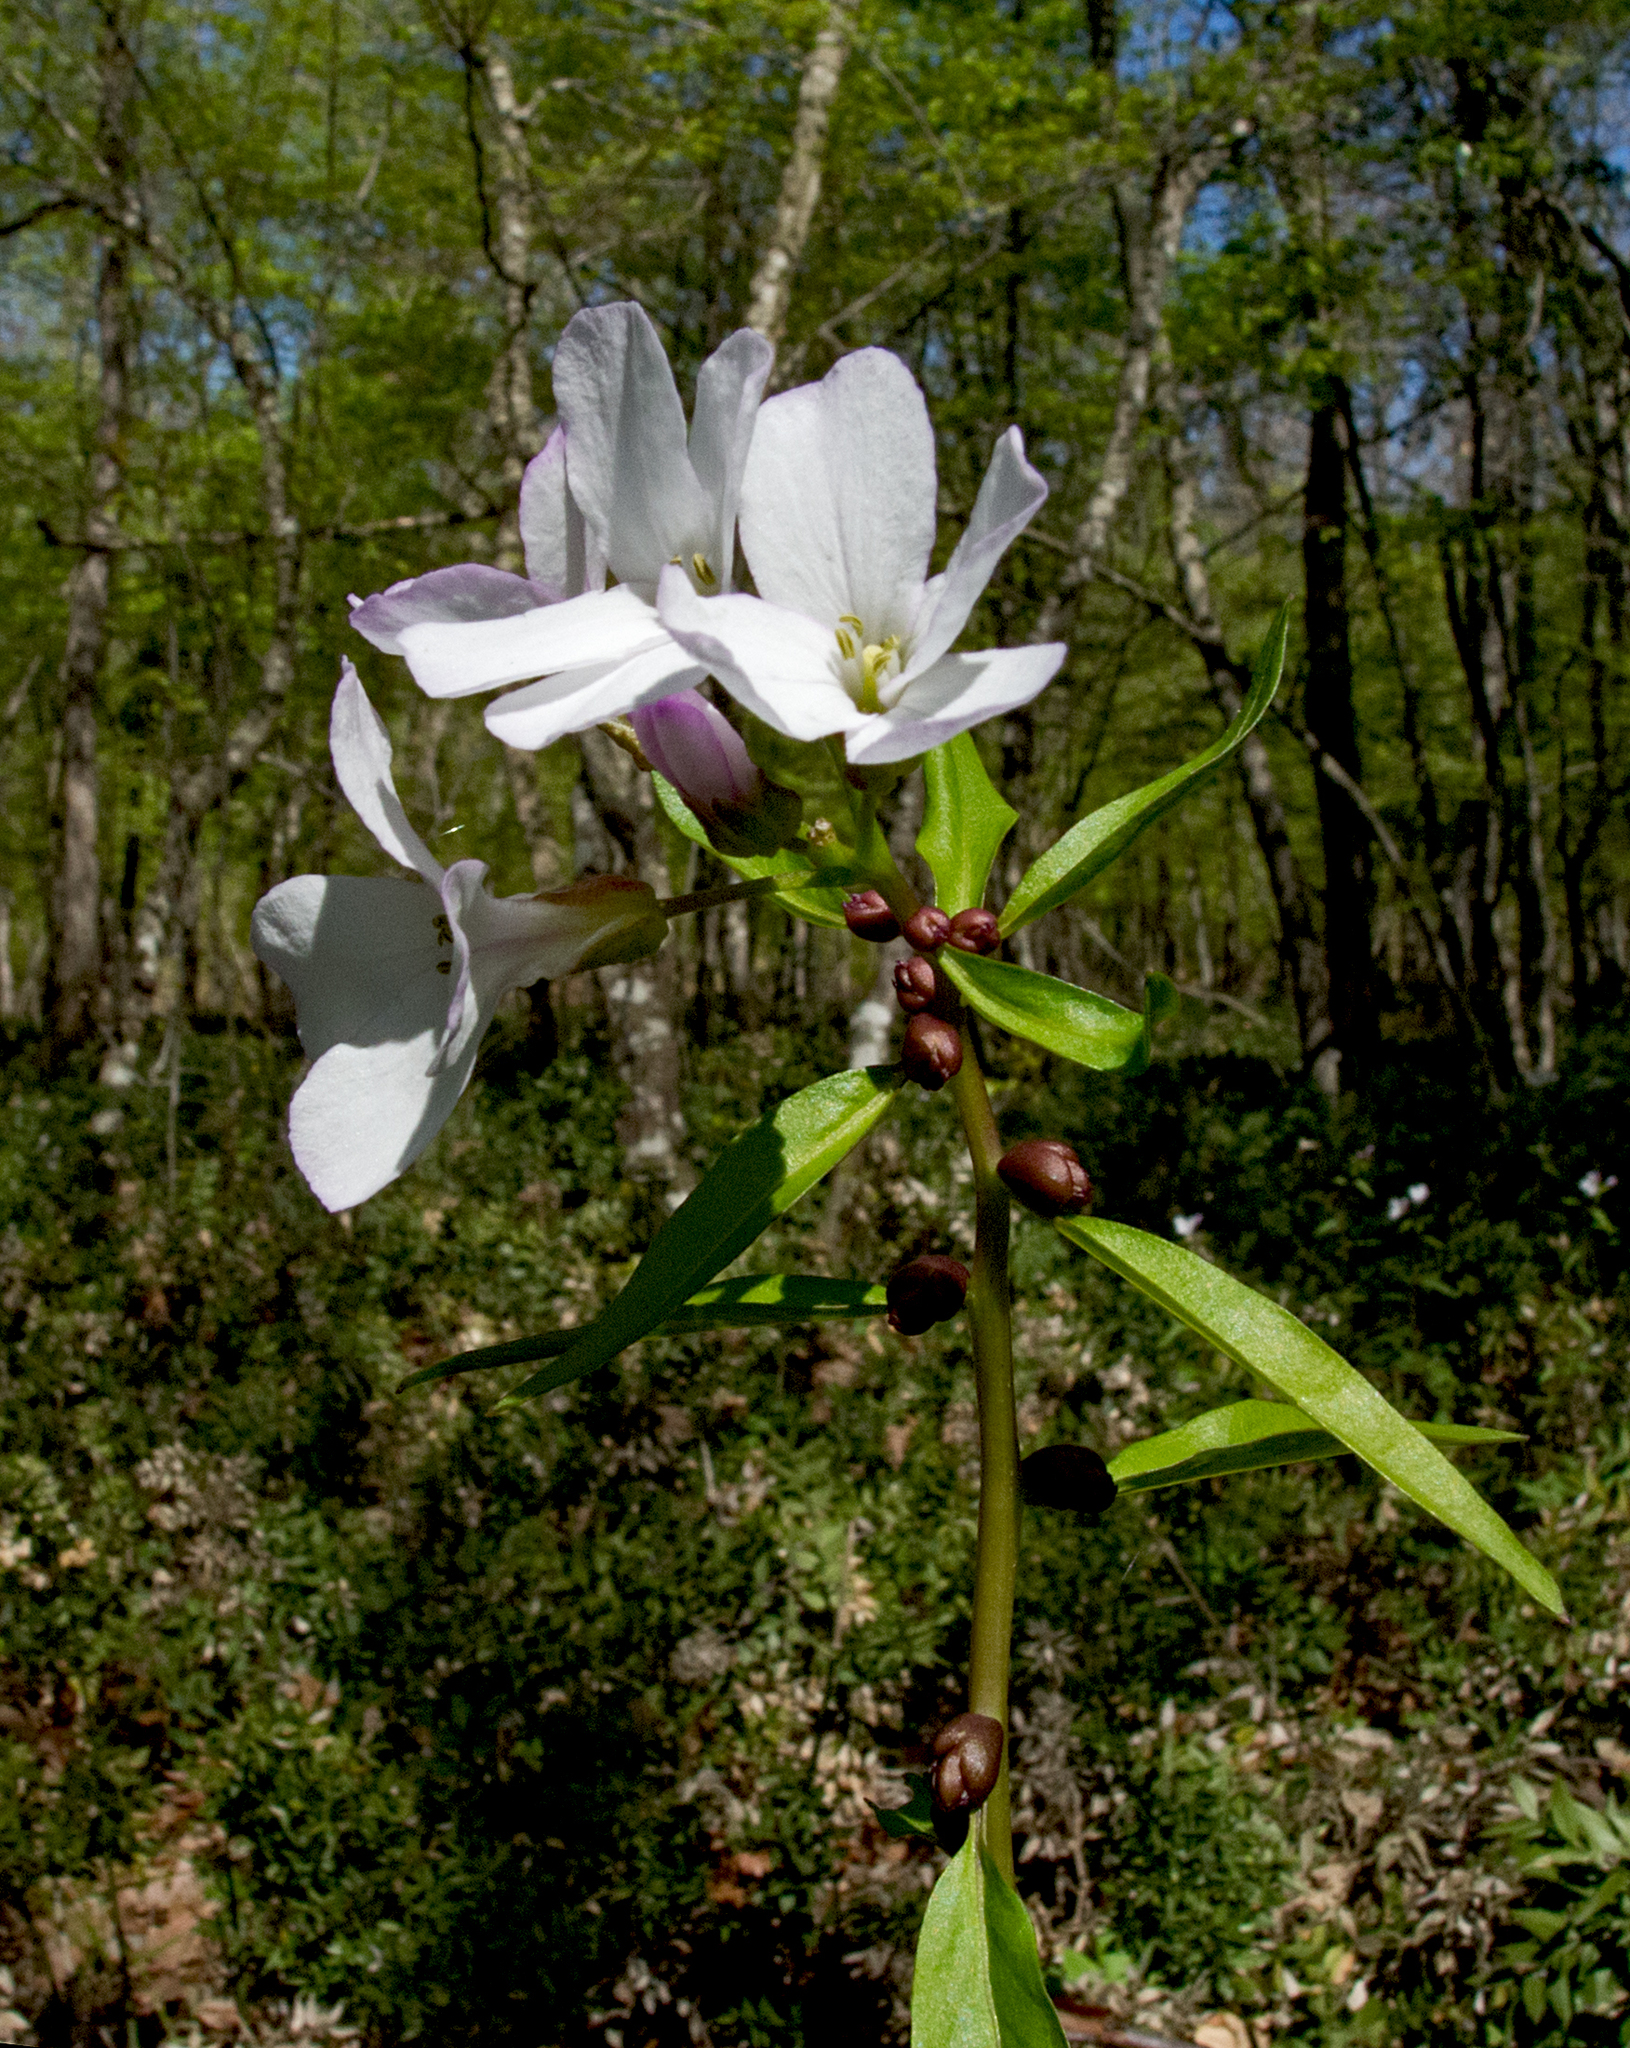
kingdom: Plantae
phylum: Tracheophyta
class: Magnoliopsida
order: Brassicales
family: Brassicaceae
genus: Cardamine
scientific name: Cardamine bulbifera
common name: Coralroot bittercress
